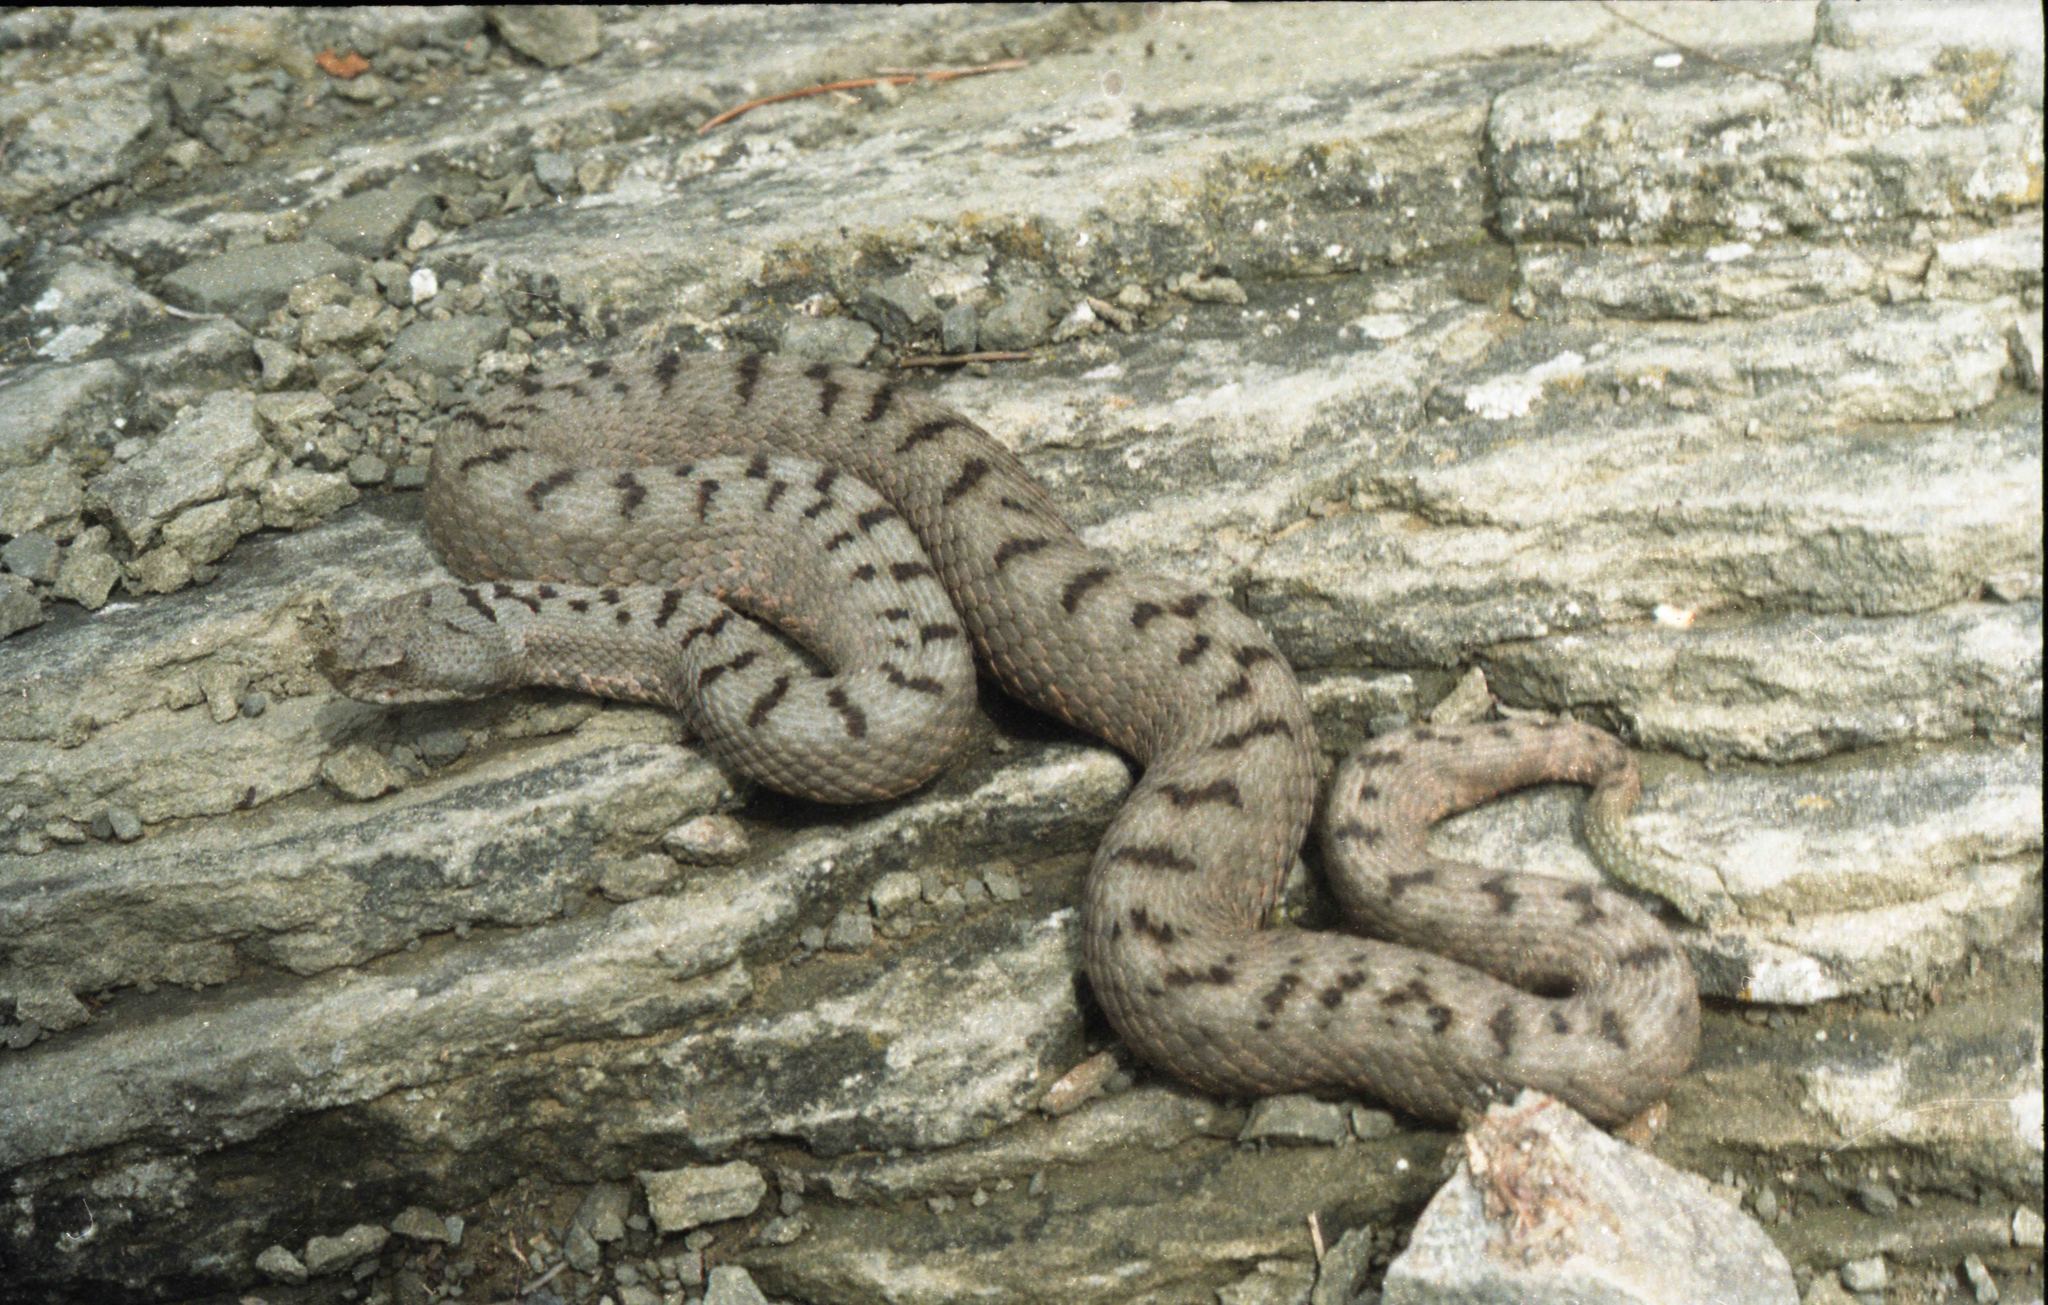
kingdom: Animalia
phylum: Chordata
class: Squamata
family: Viperidae
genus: Vipera
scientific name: Vipera transcaucasiana
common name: Transcaucasian long-nosed viper
